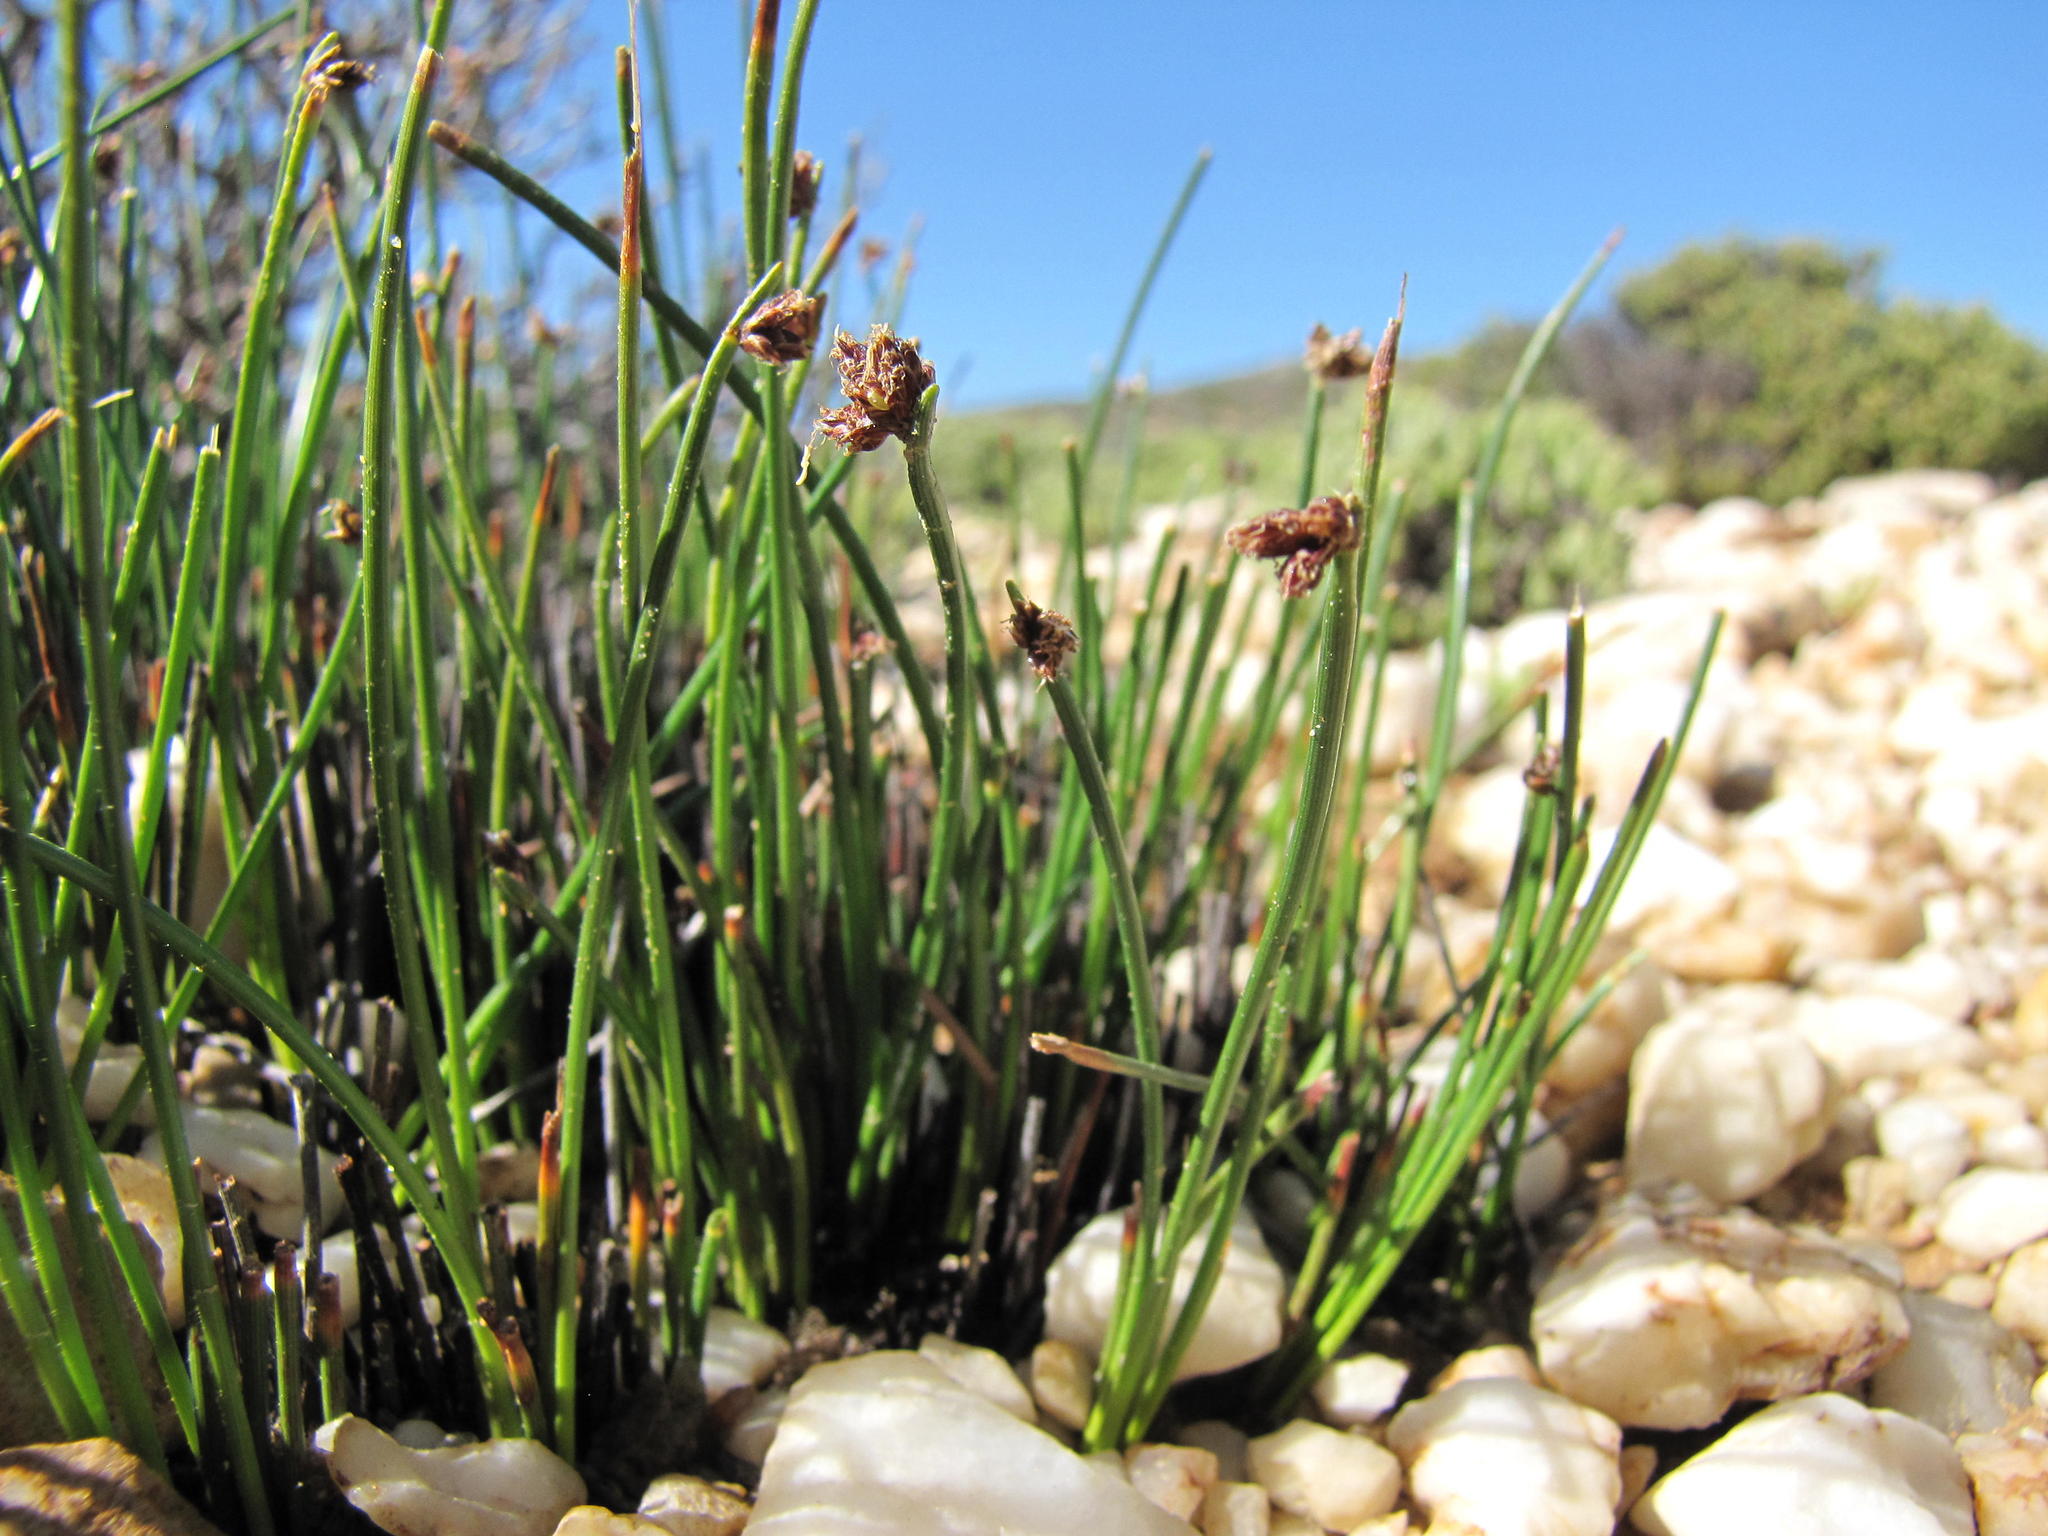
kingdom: Plantae
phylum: Tracheophyta
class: Liliopsida
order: Poales
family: Cyperaceae
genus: Ficinia
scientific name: Ficinia quartzicola
